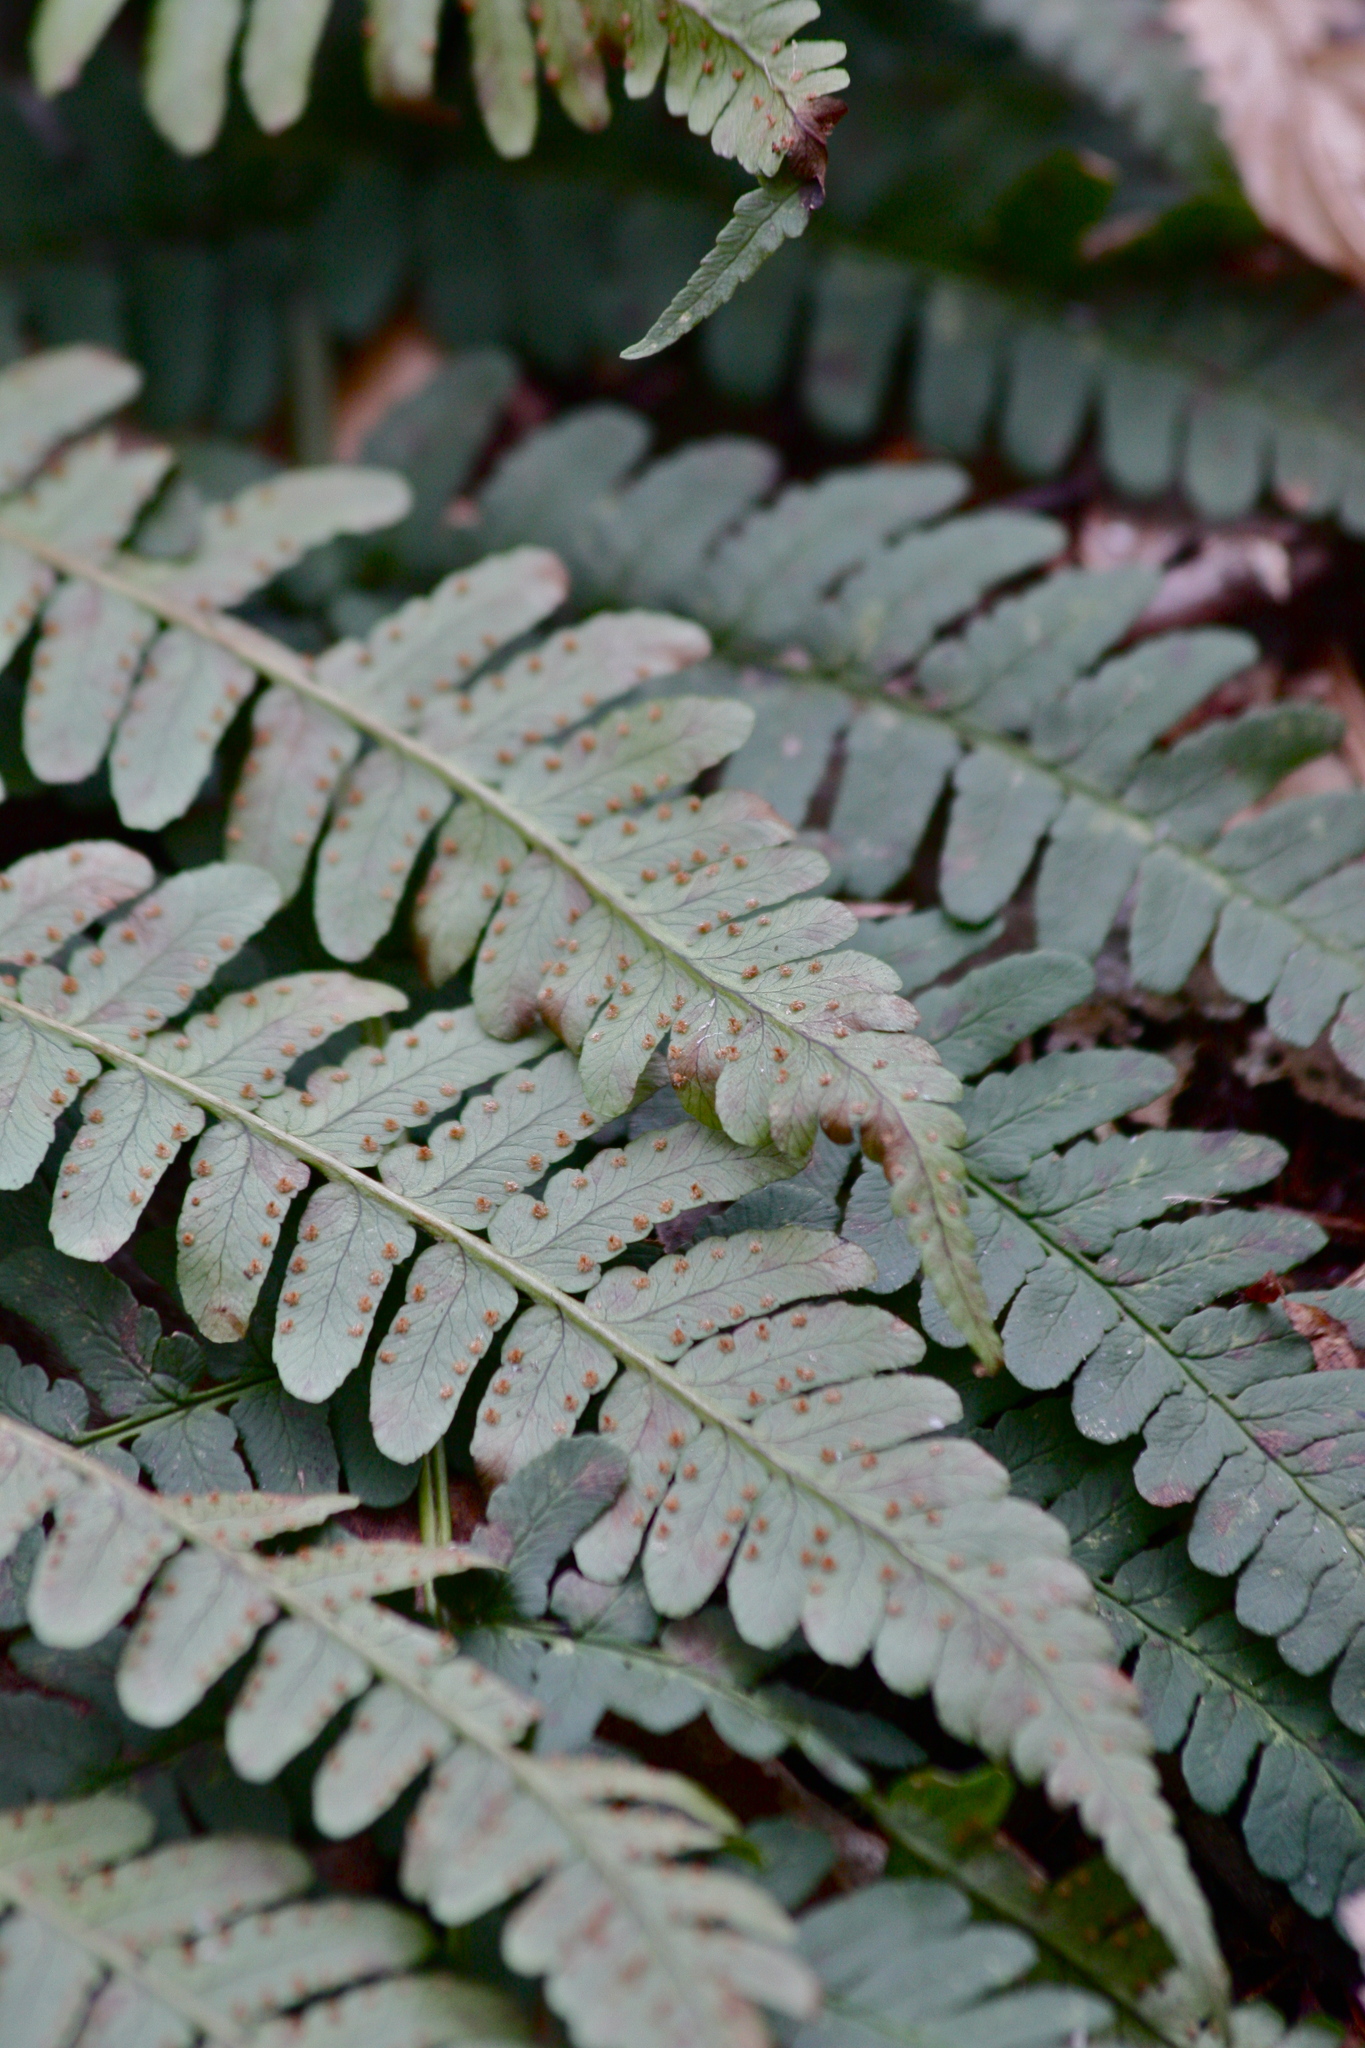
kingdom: Plantae
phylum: Tracheophyta
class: Polypodiopsida
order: Polypodiales
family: Dryopteridaceae
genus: Dryopteris
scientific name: Dryopteris marginalis
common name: Marginal wood fern
